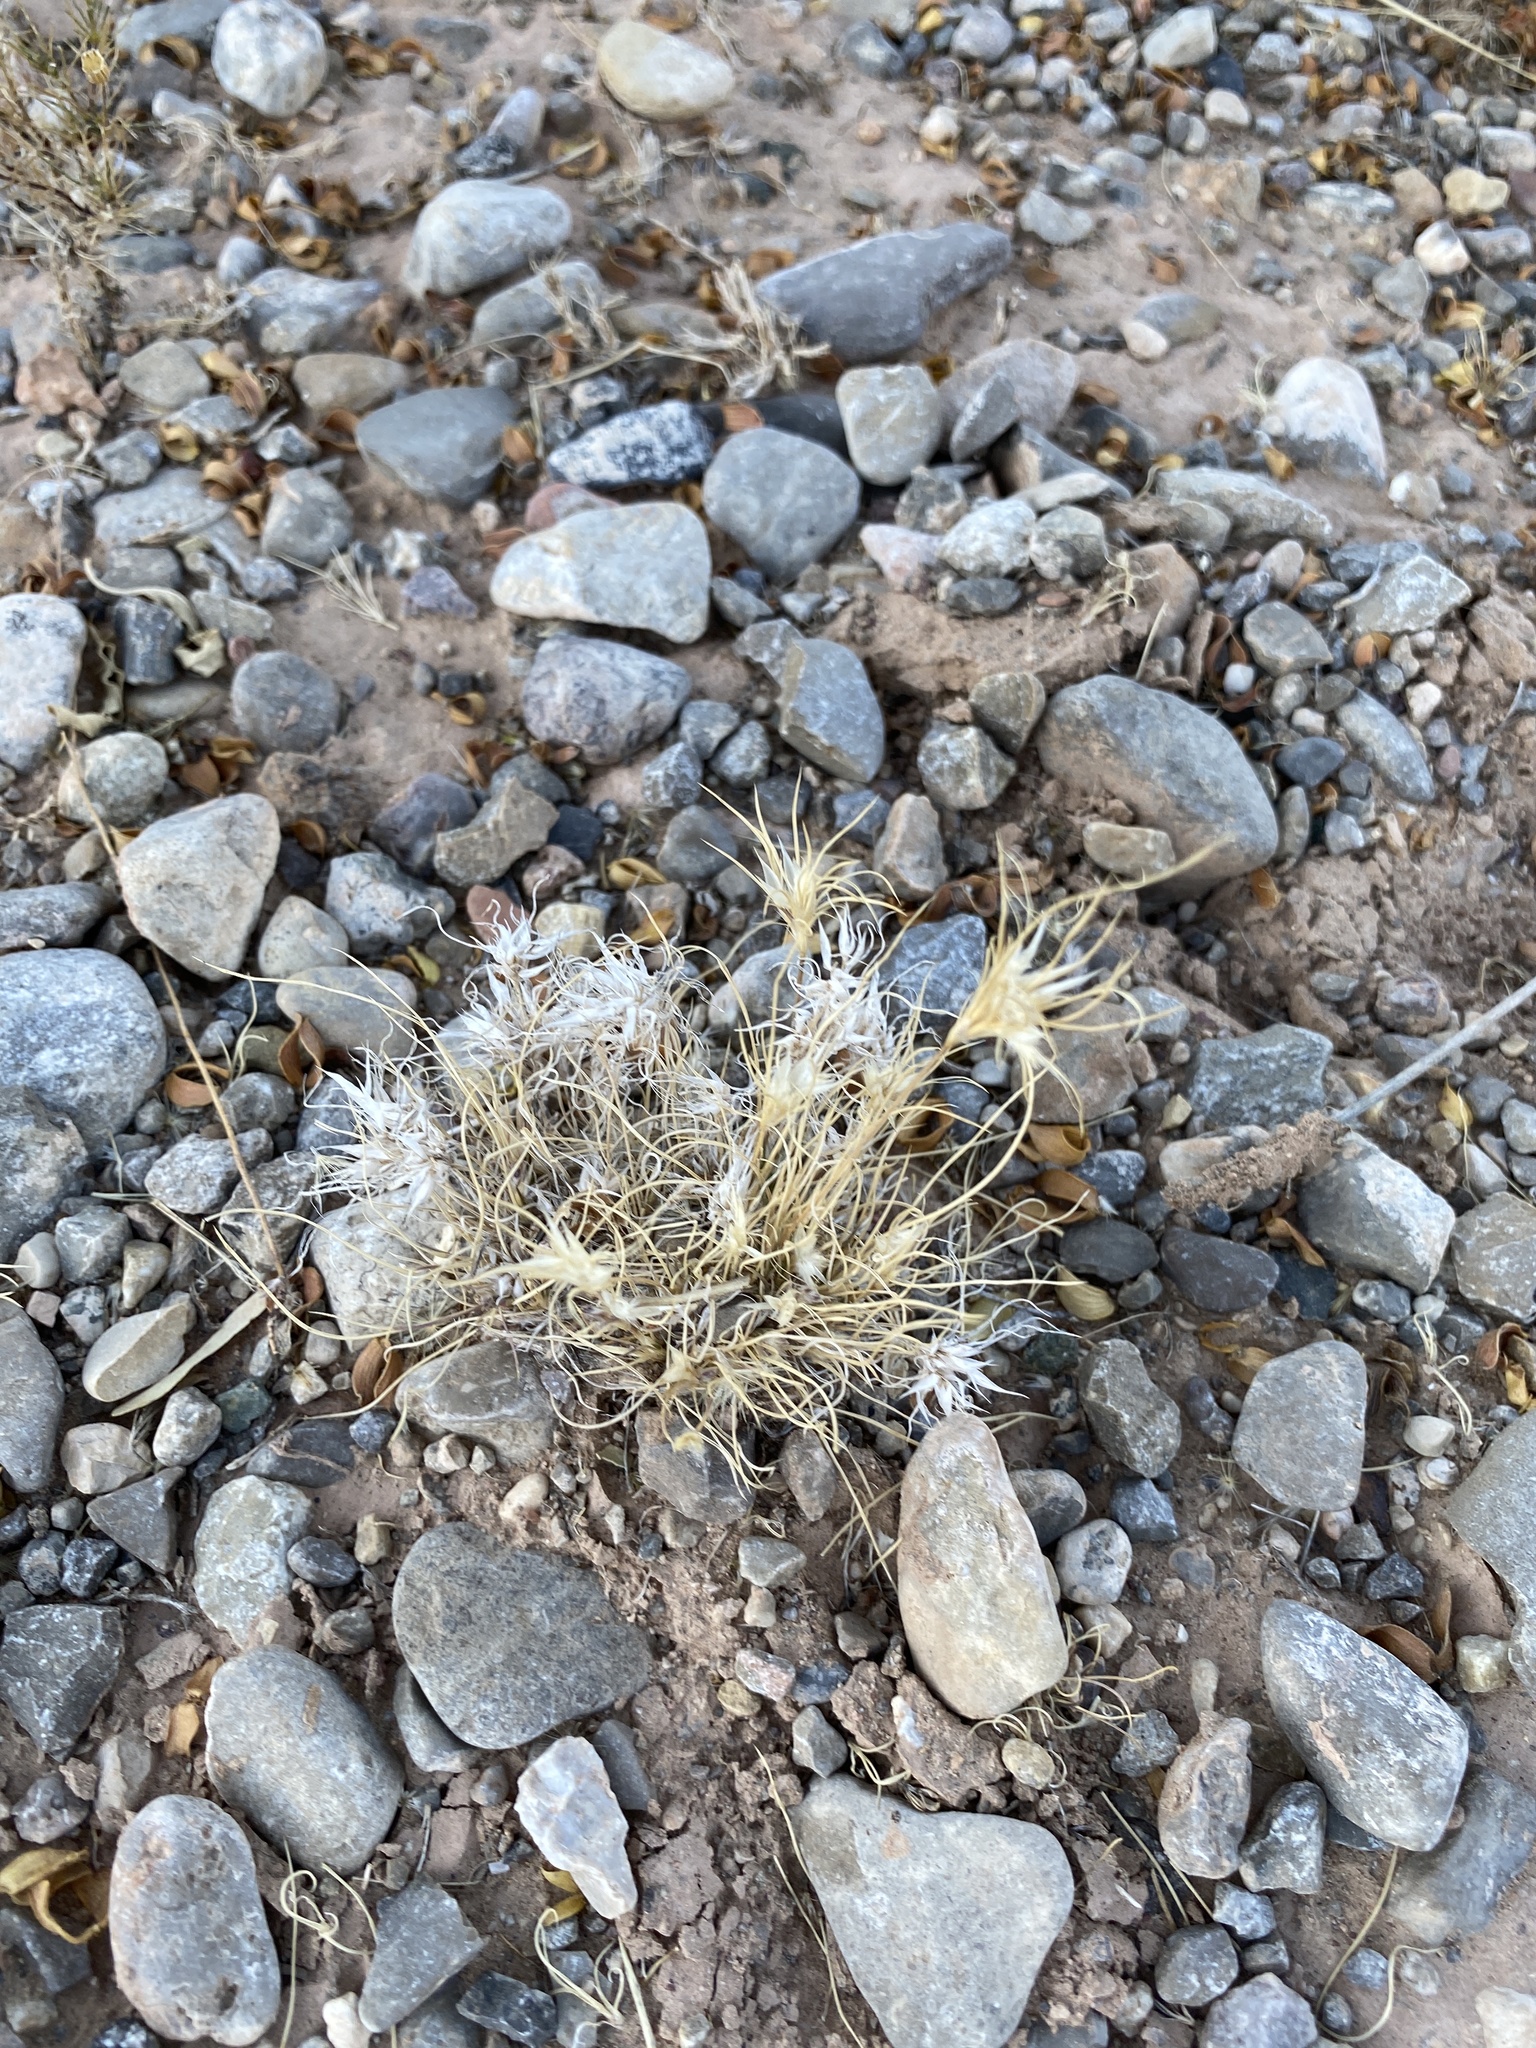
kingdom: Plantae
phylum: Tracheophyta
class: Liliopsida
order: Poales
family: Poaceae
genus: Dasyochloa
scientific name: Dasyochloa pulchella
